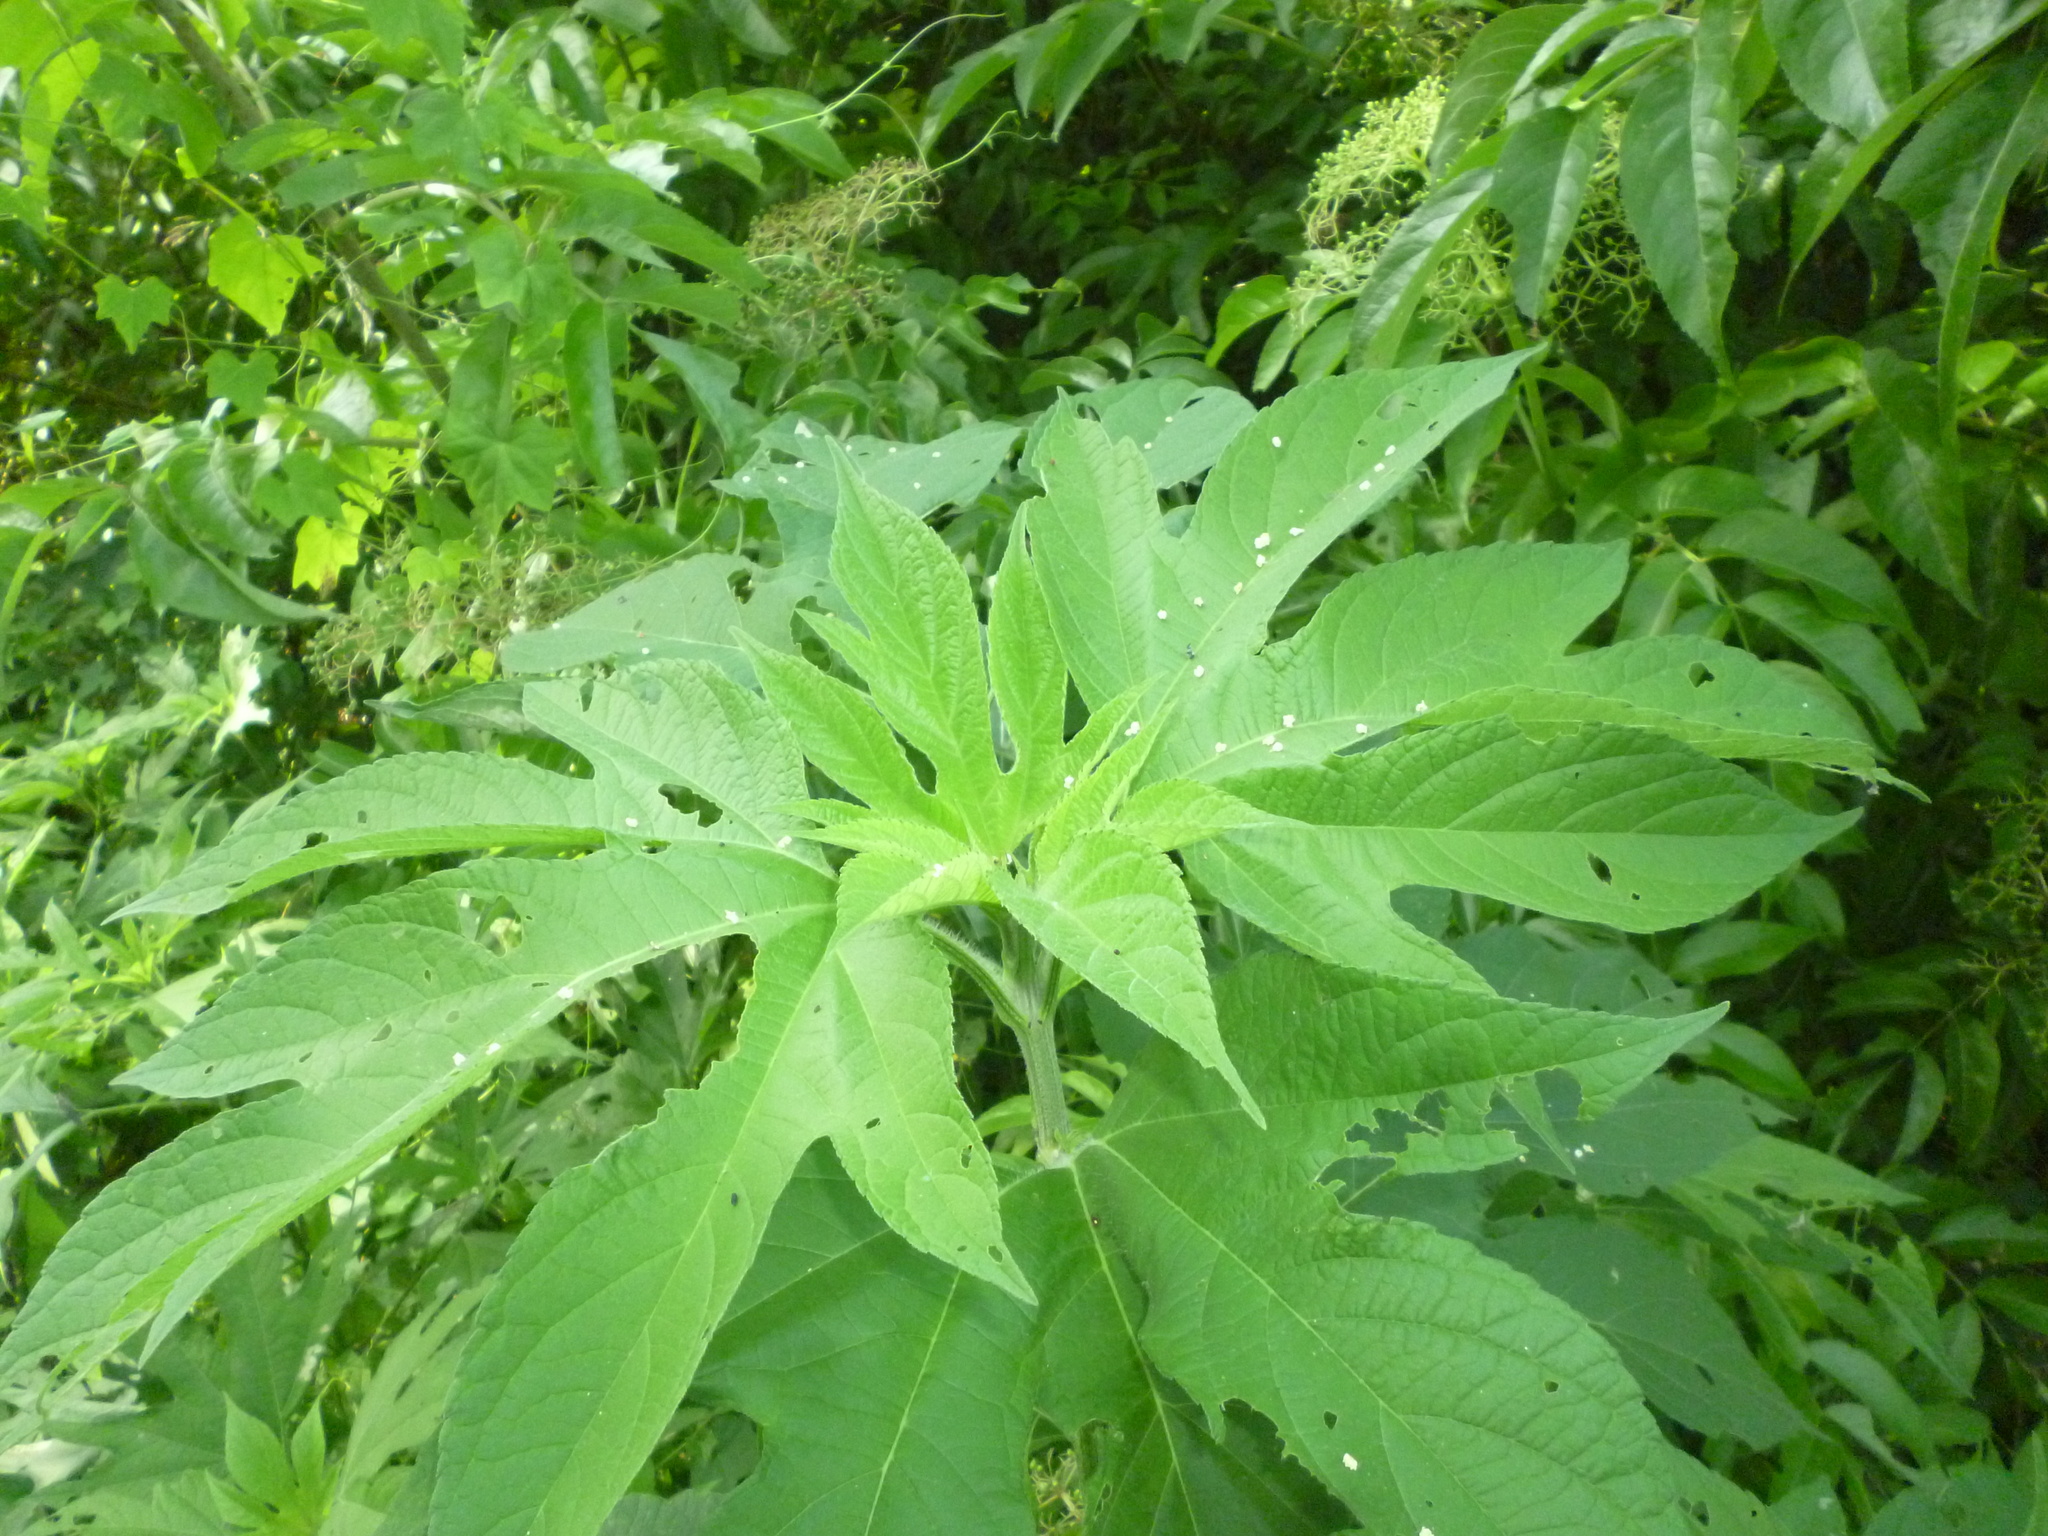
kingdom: Plantae
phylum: Tracheophyta
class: Magnoliopsida
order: Asterales
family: Asteraceae
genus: Ambrosia
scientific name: Ambrosia trifida
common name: Giant ragweed
